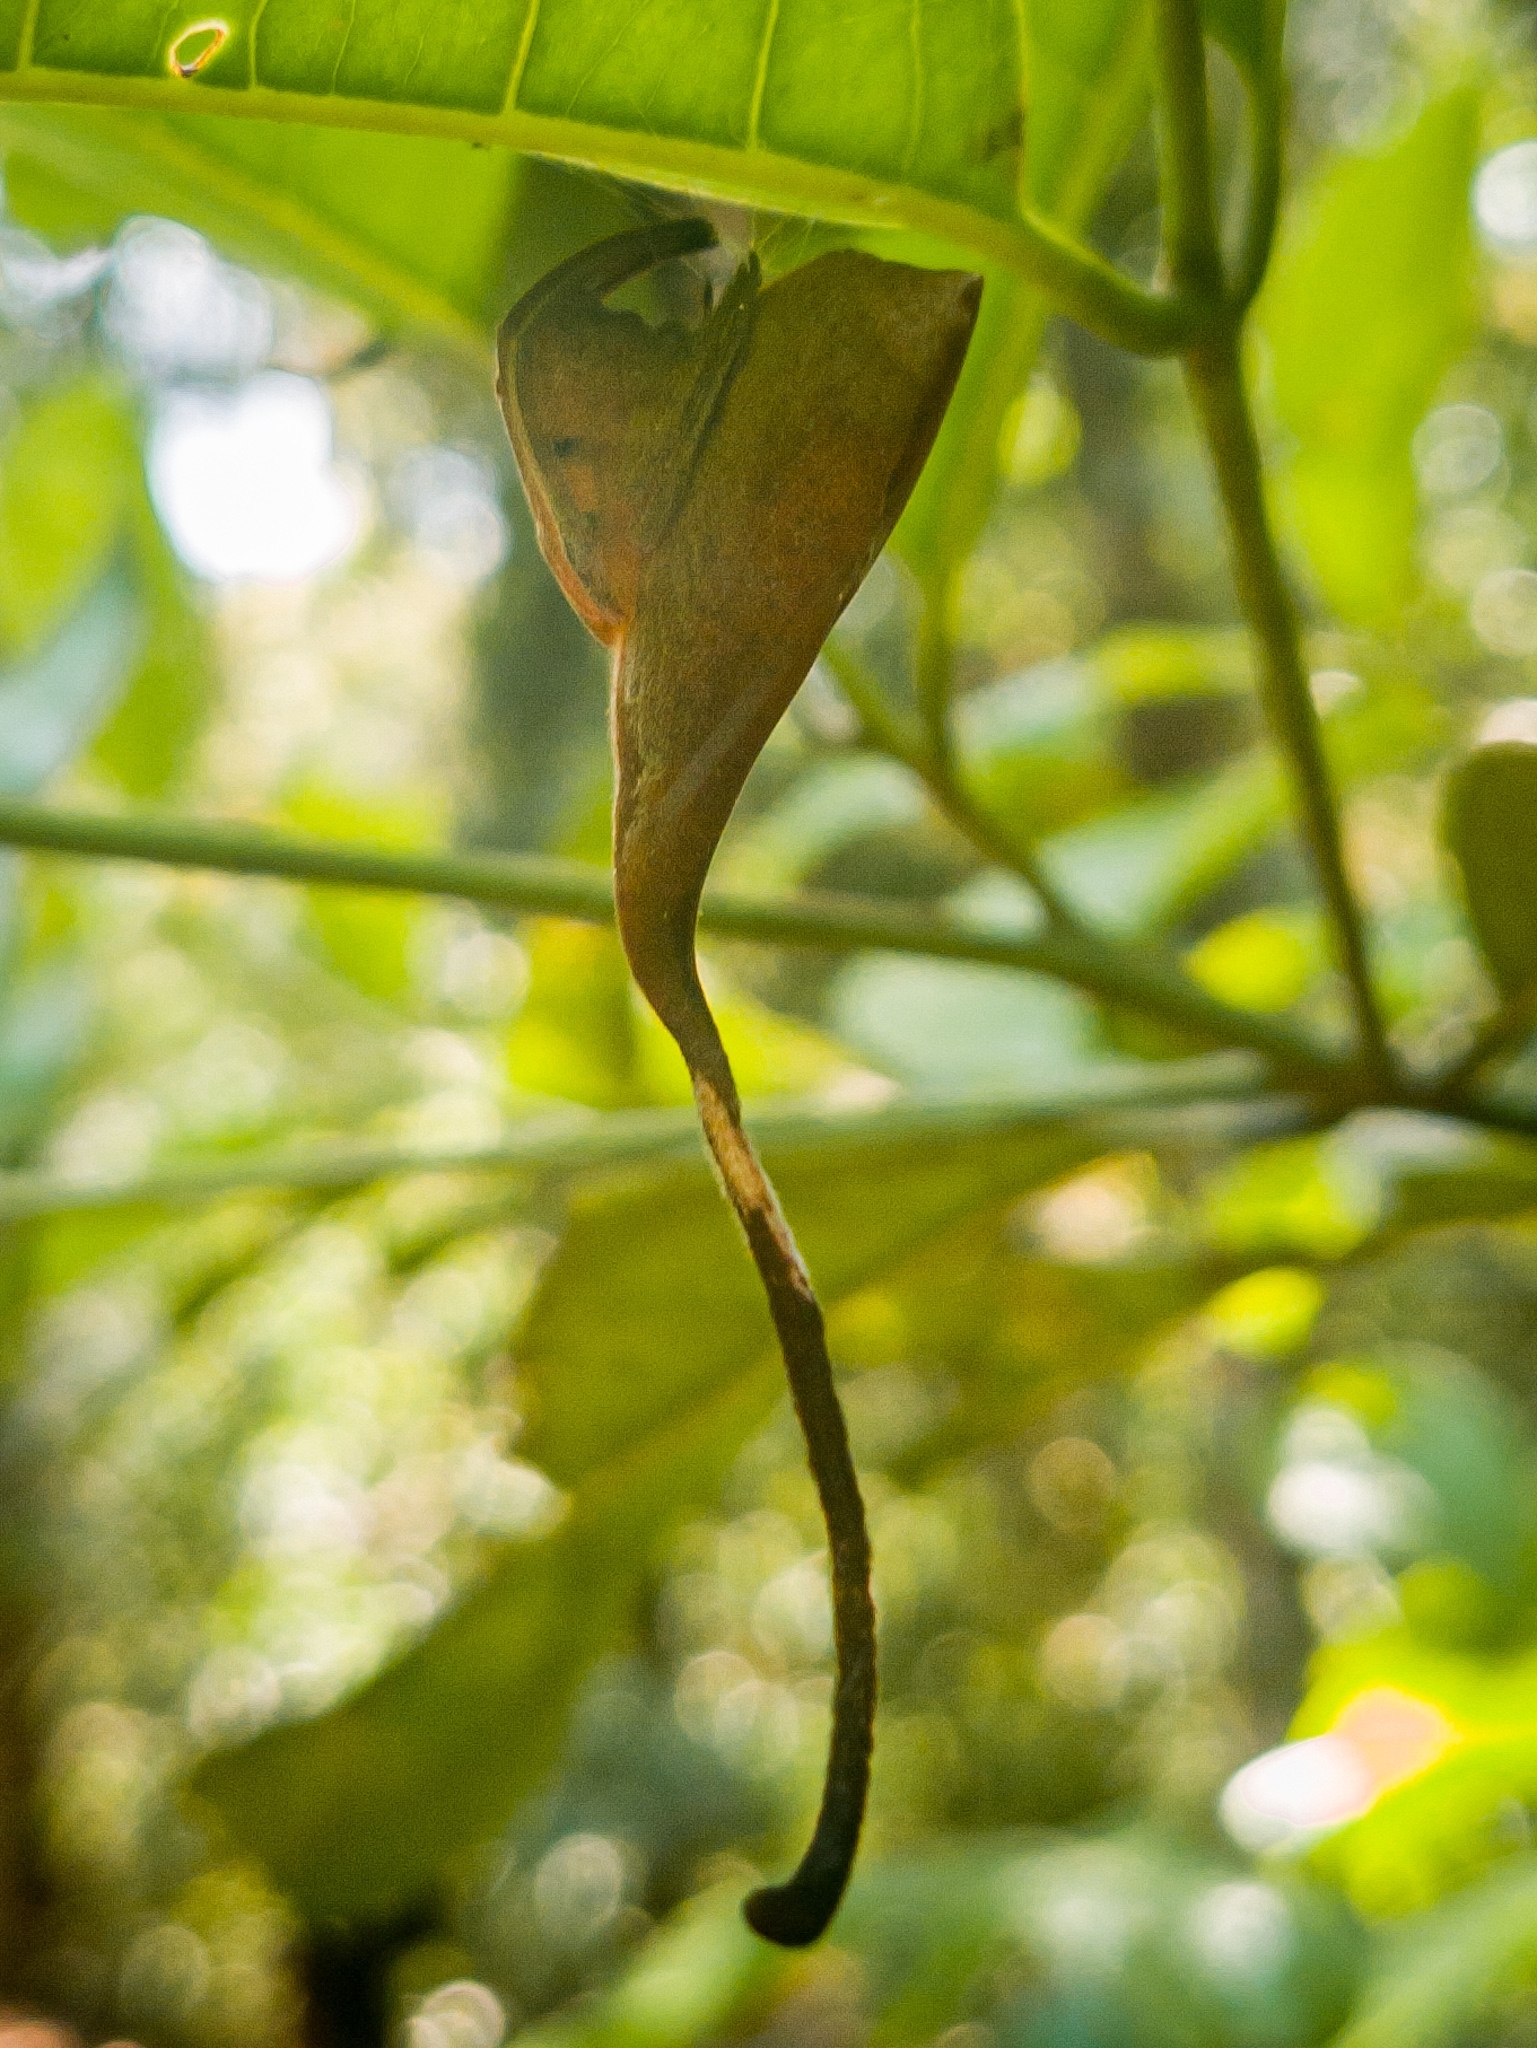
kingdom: Animalia
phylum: Arthropoda
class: Arachnida
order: Araneae
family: Araneidae
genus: Poltys
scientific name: Poltys idae
